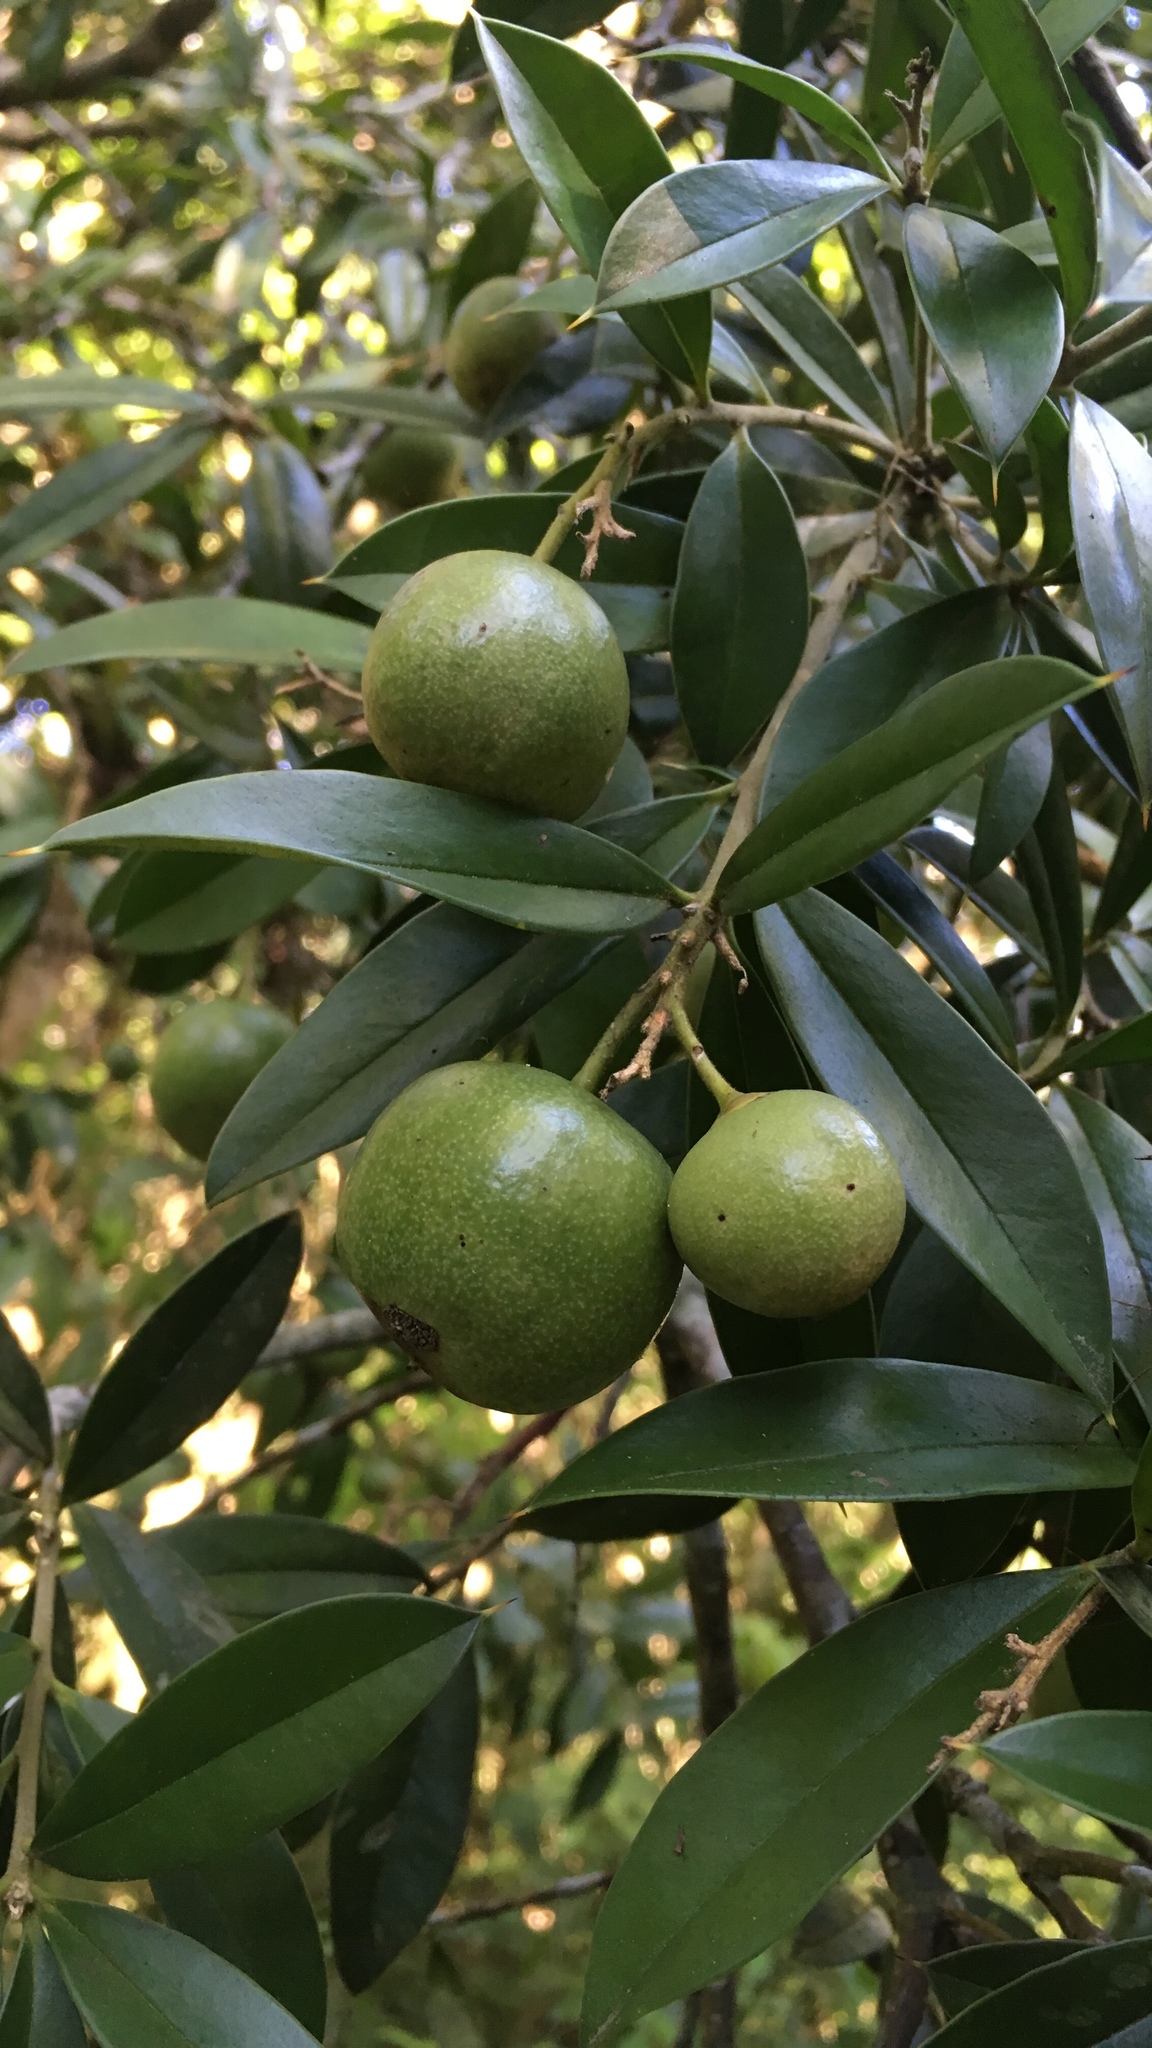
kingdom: Plantae
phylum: Tracheophyta
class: Magnoliopsida
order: Ericales
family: Primulaceae
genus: Bonellia
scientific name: Bonellia macrocarpa
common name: Primrose
